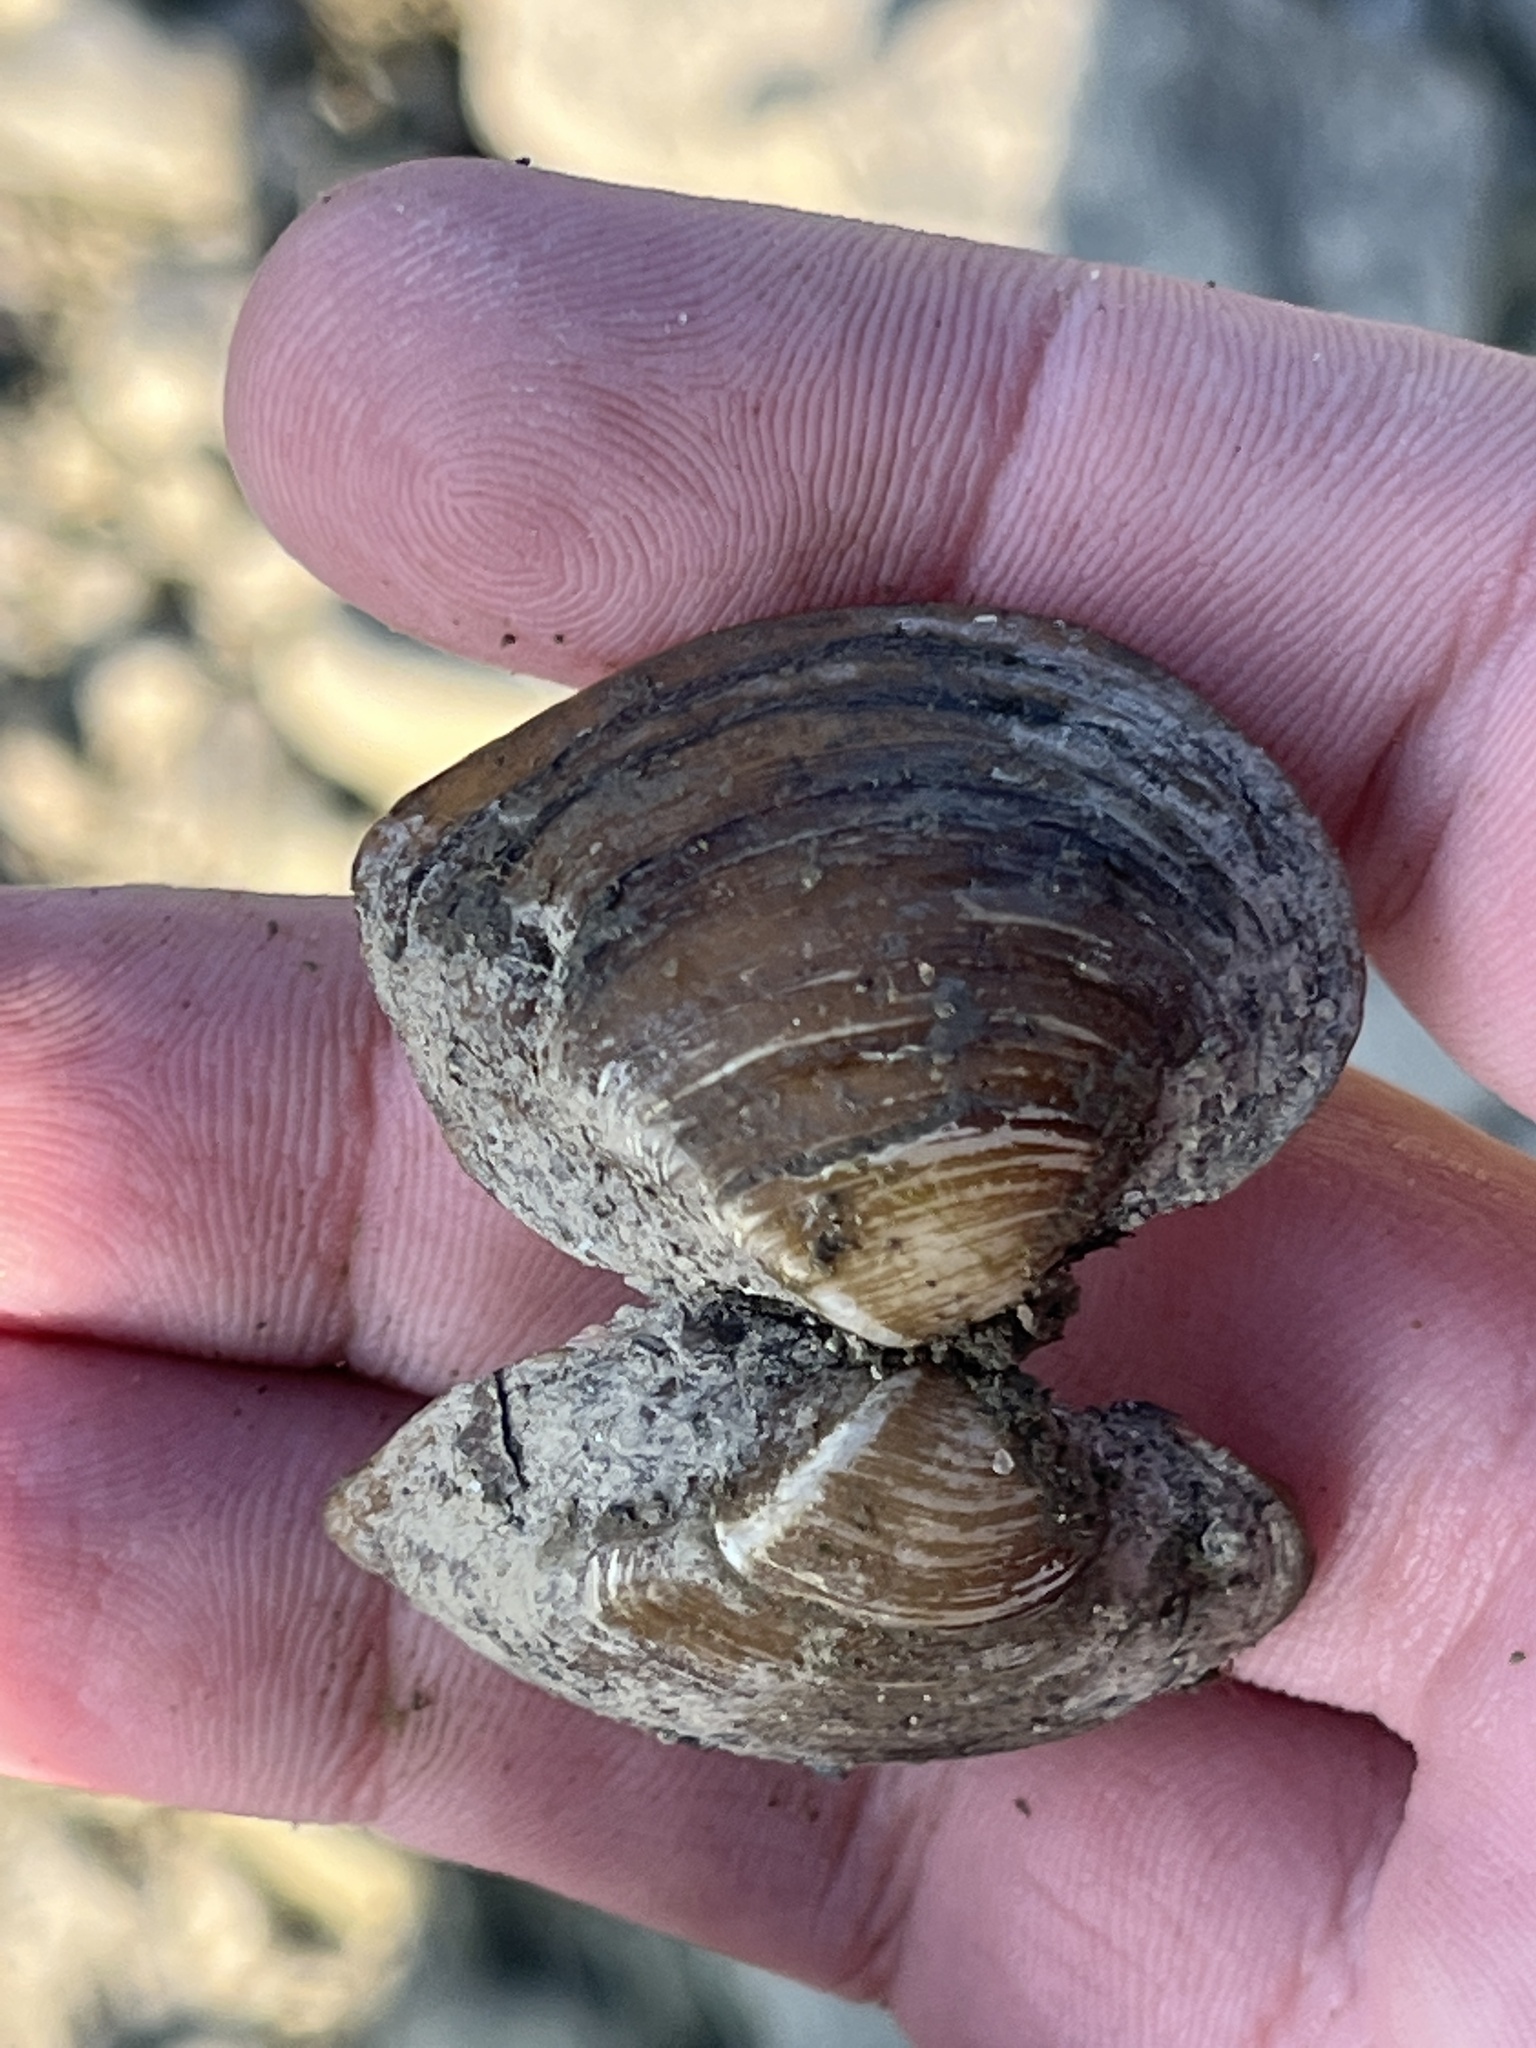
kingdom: Animalia
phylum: Mollusca
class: Bivalvia
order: Unionida
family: Unionidae
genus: Truncilla
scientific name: Truncilla truncata
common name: Deertoe
